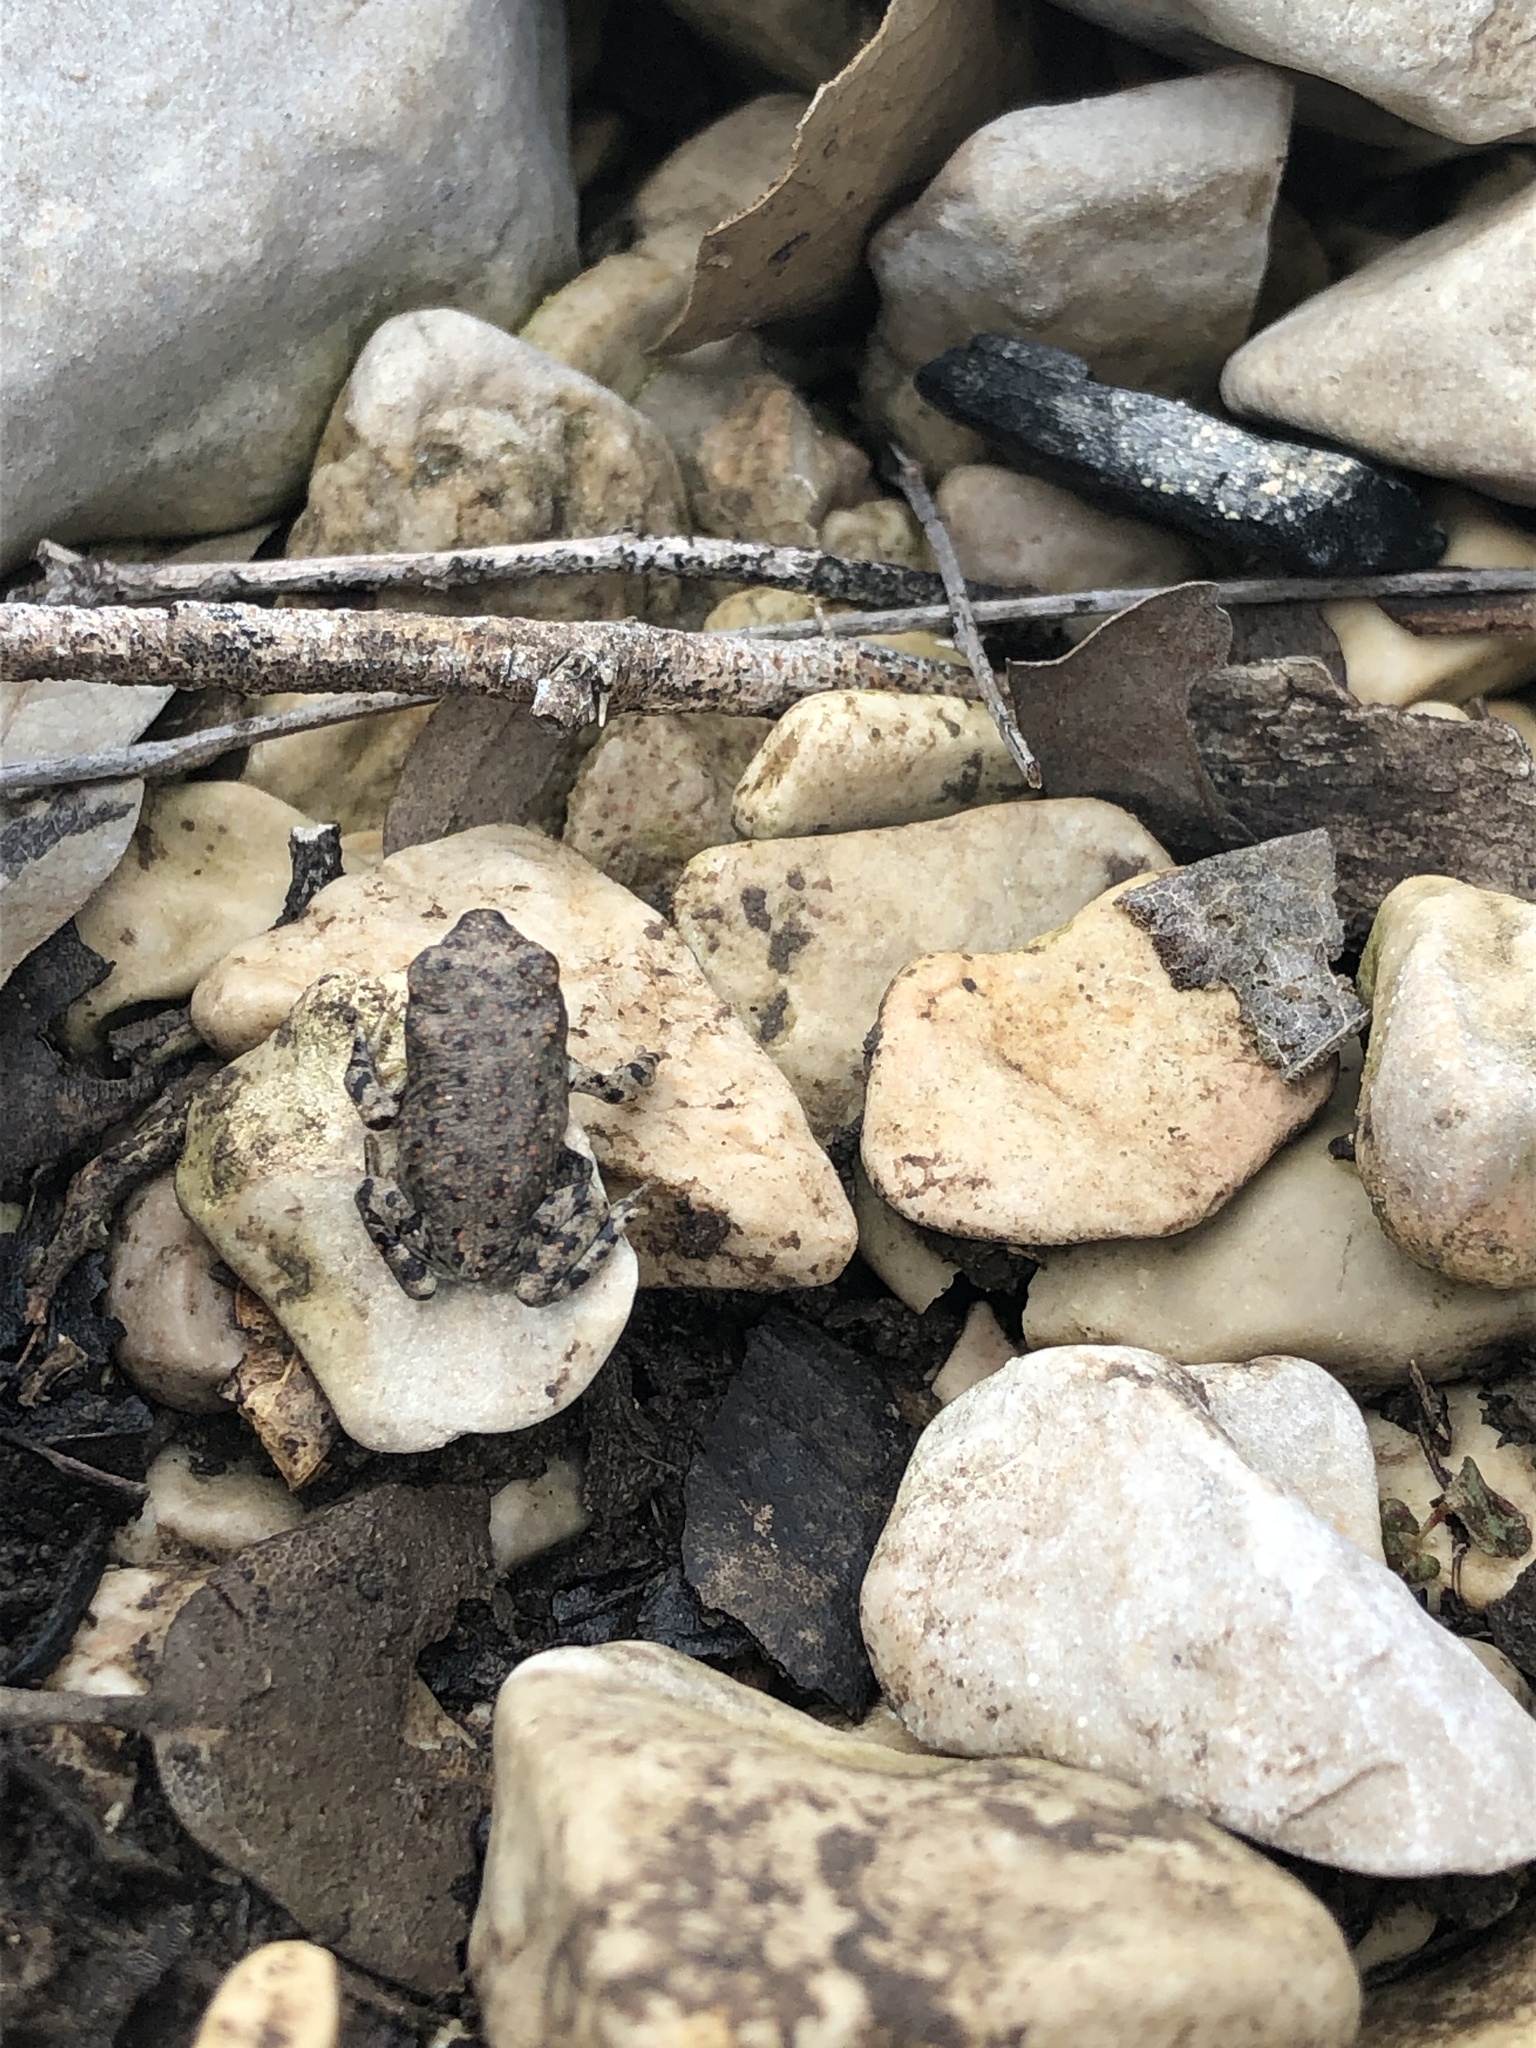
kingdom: Animalia
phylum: Chordata
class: Amphibia
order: Anura
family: Bufonidae
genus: Anaxyrus
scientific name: Anaxyrus punctatus
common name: Red-spotted toad
